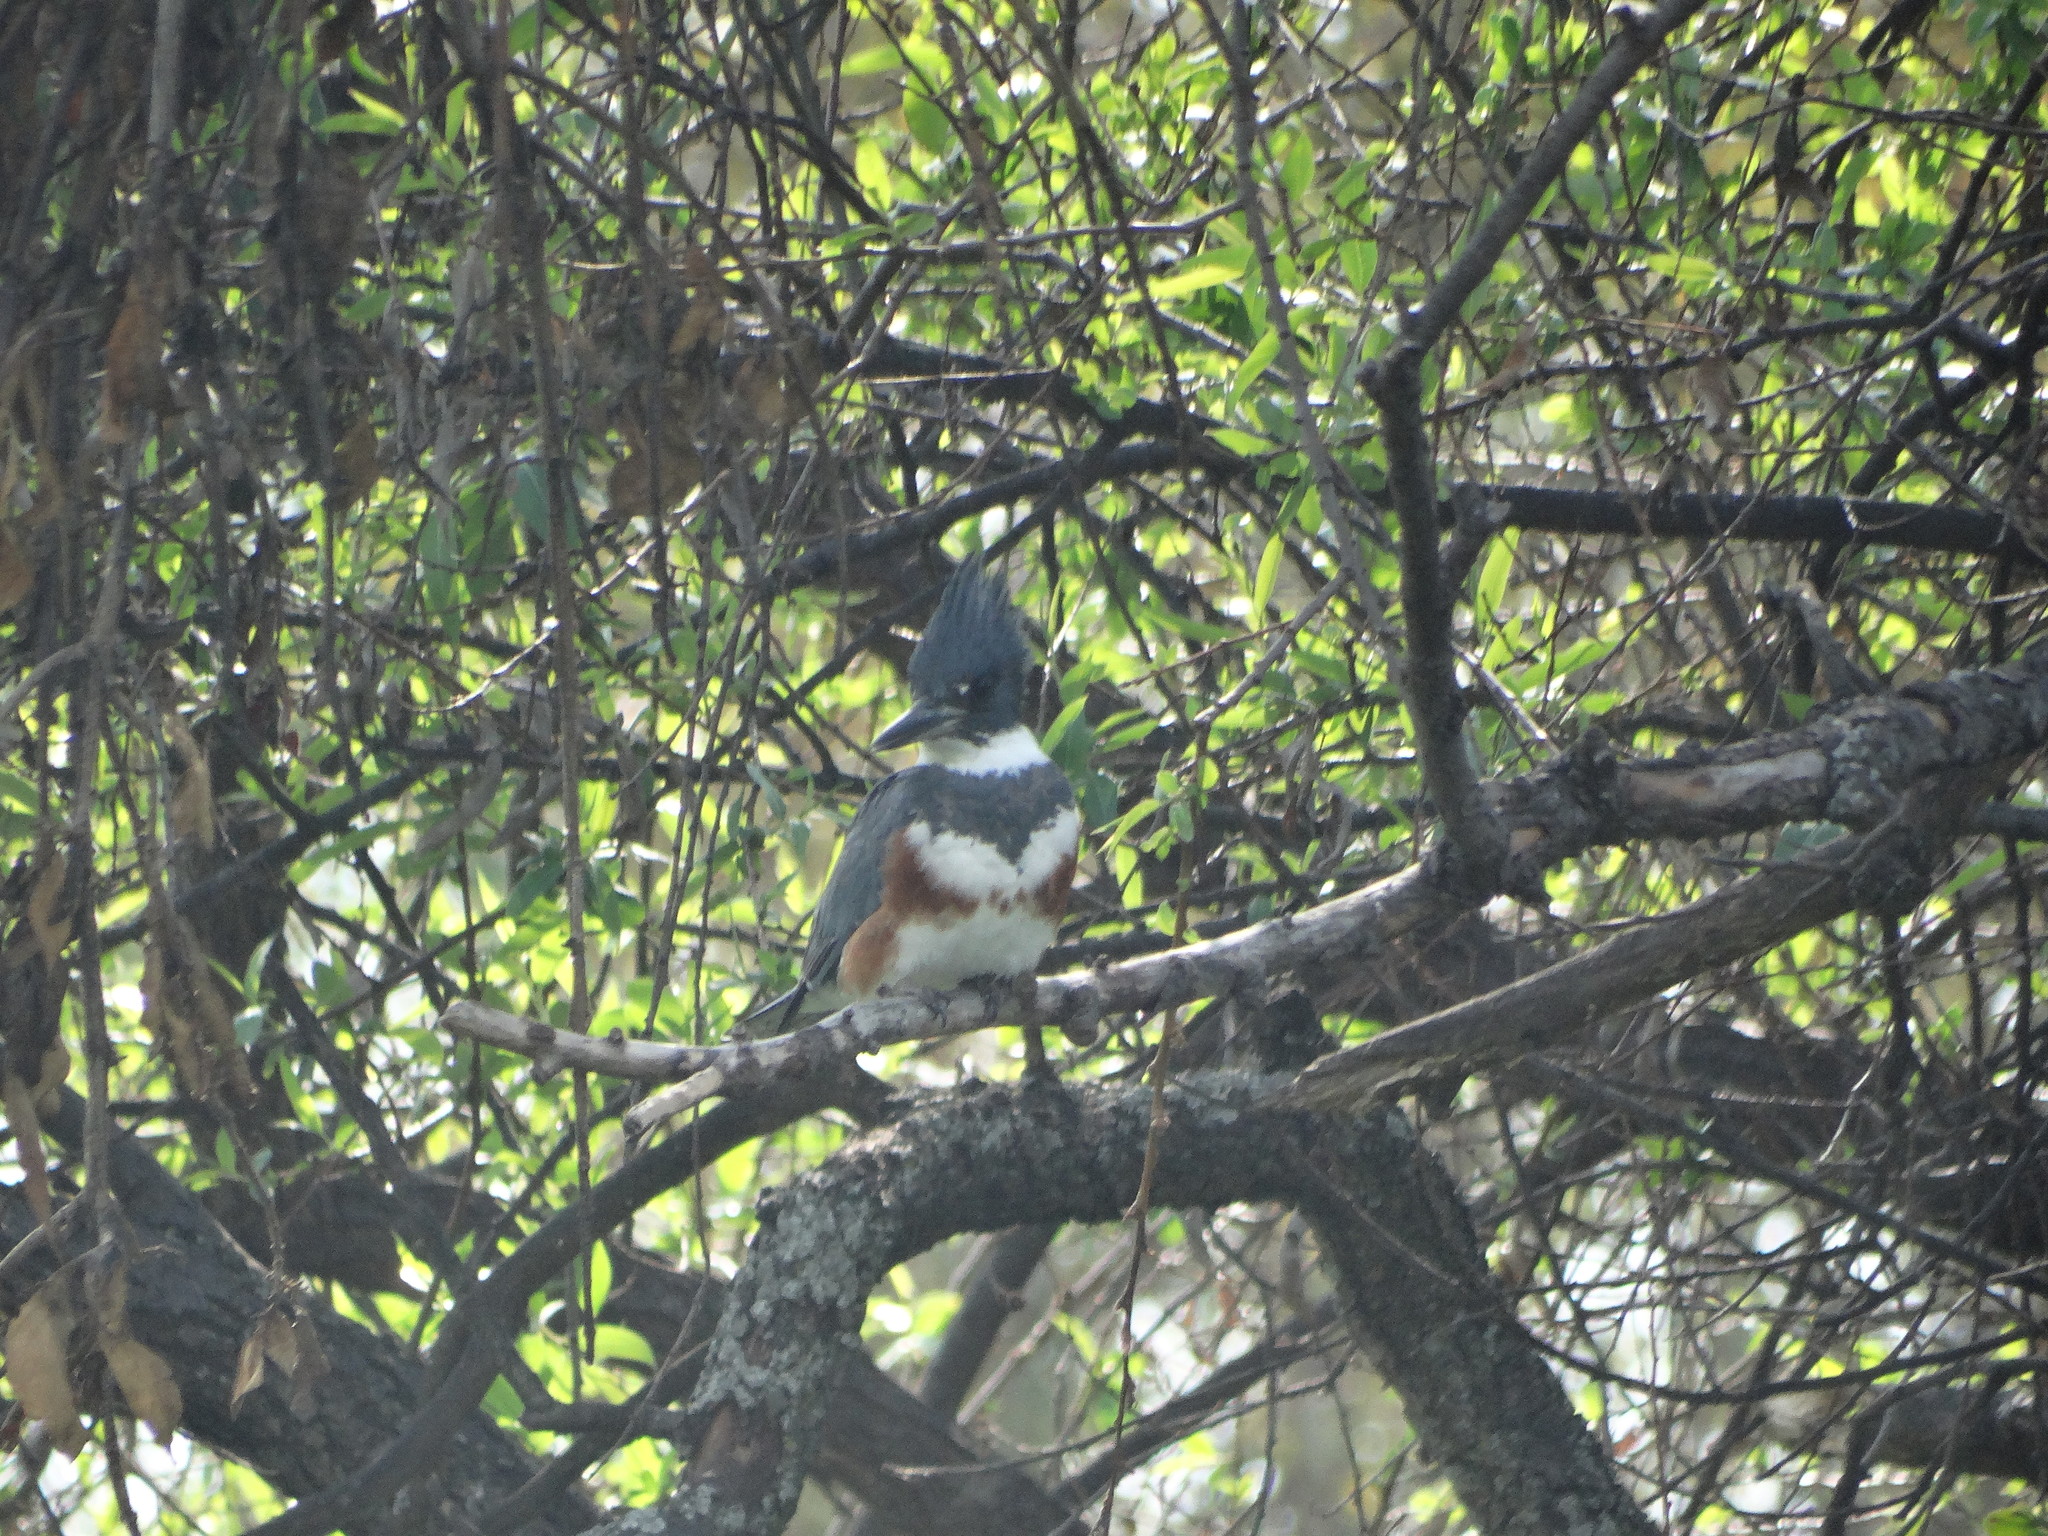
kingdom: Animalia
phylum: Chordata
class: Aves
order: Coraciiformes
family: Alcedinidae
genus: Megaceryle
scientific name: Megaceryle alcyon
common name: Belted kingfisher
